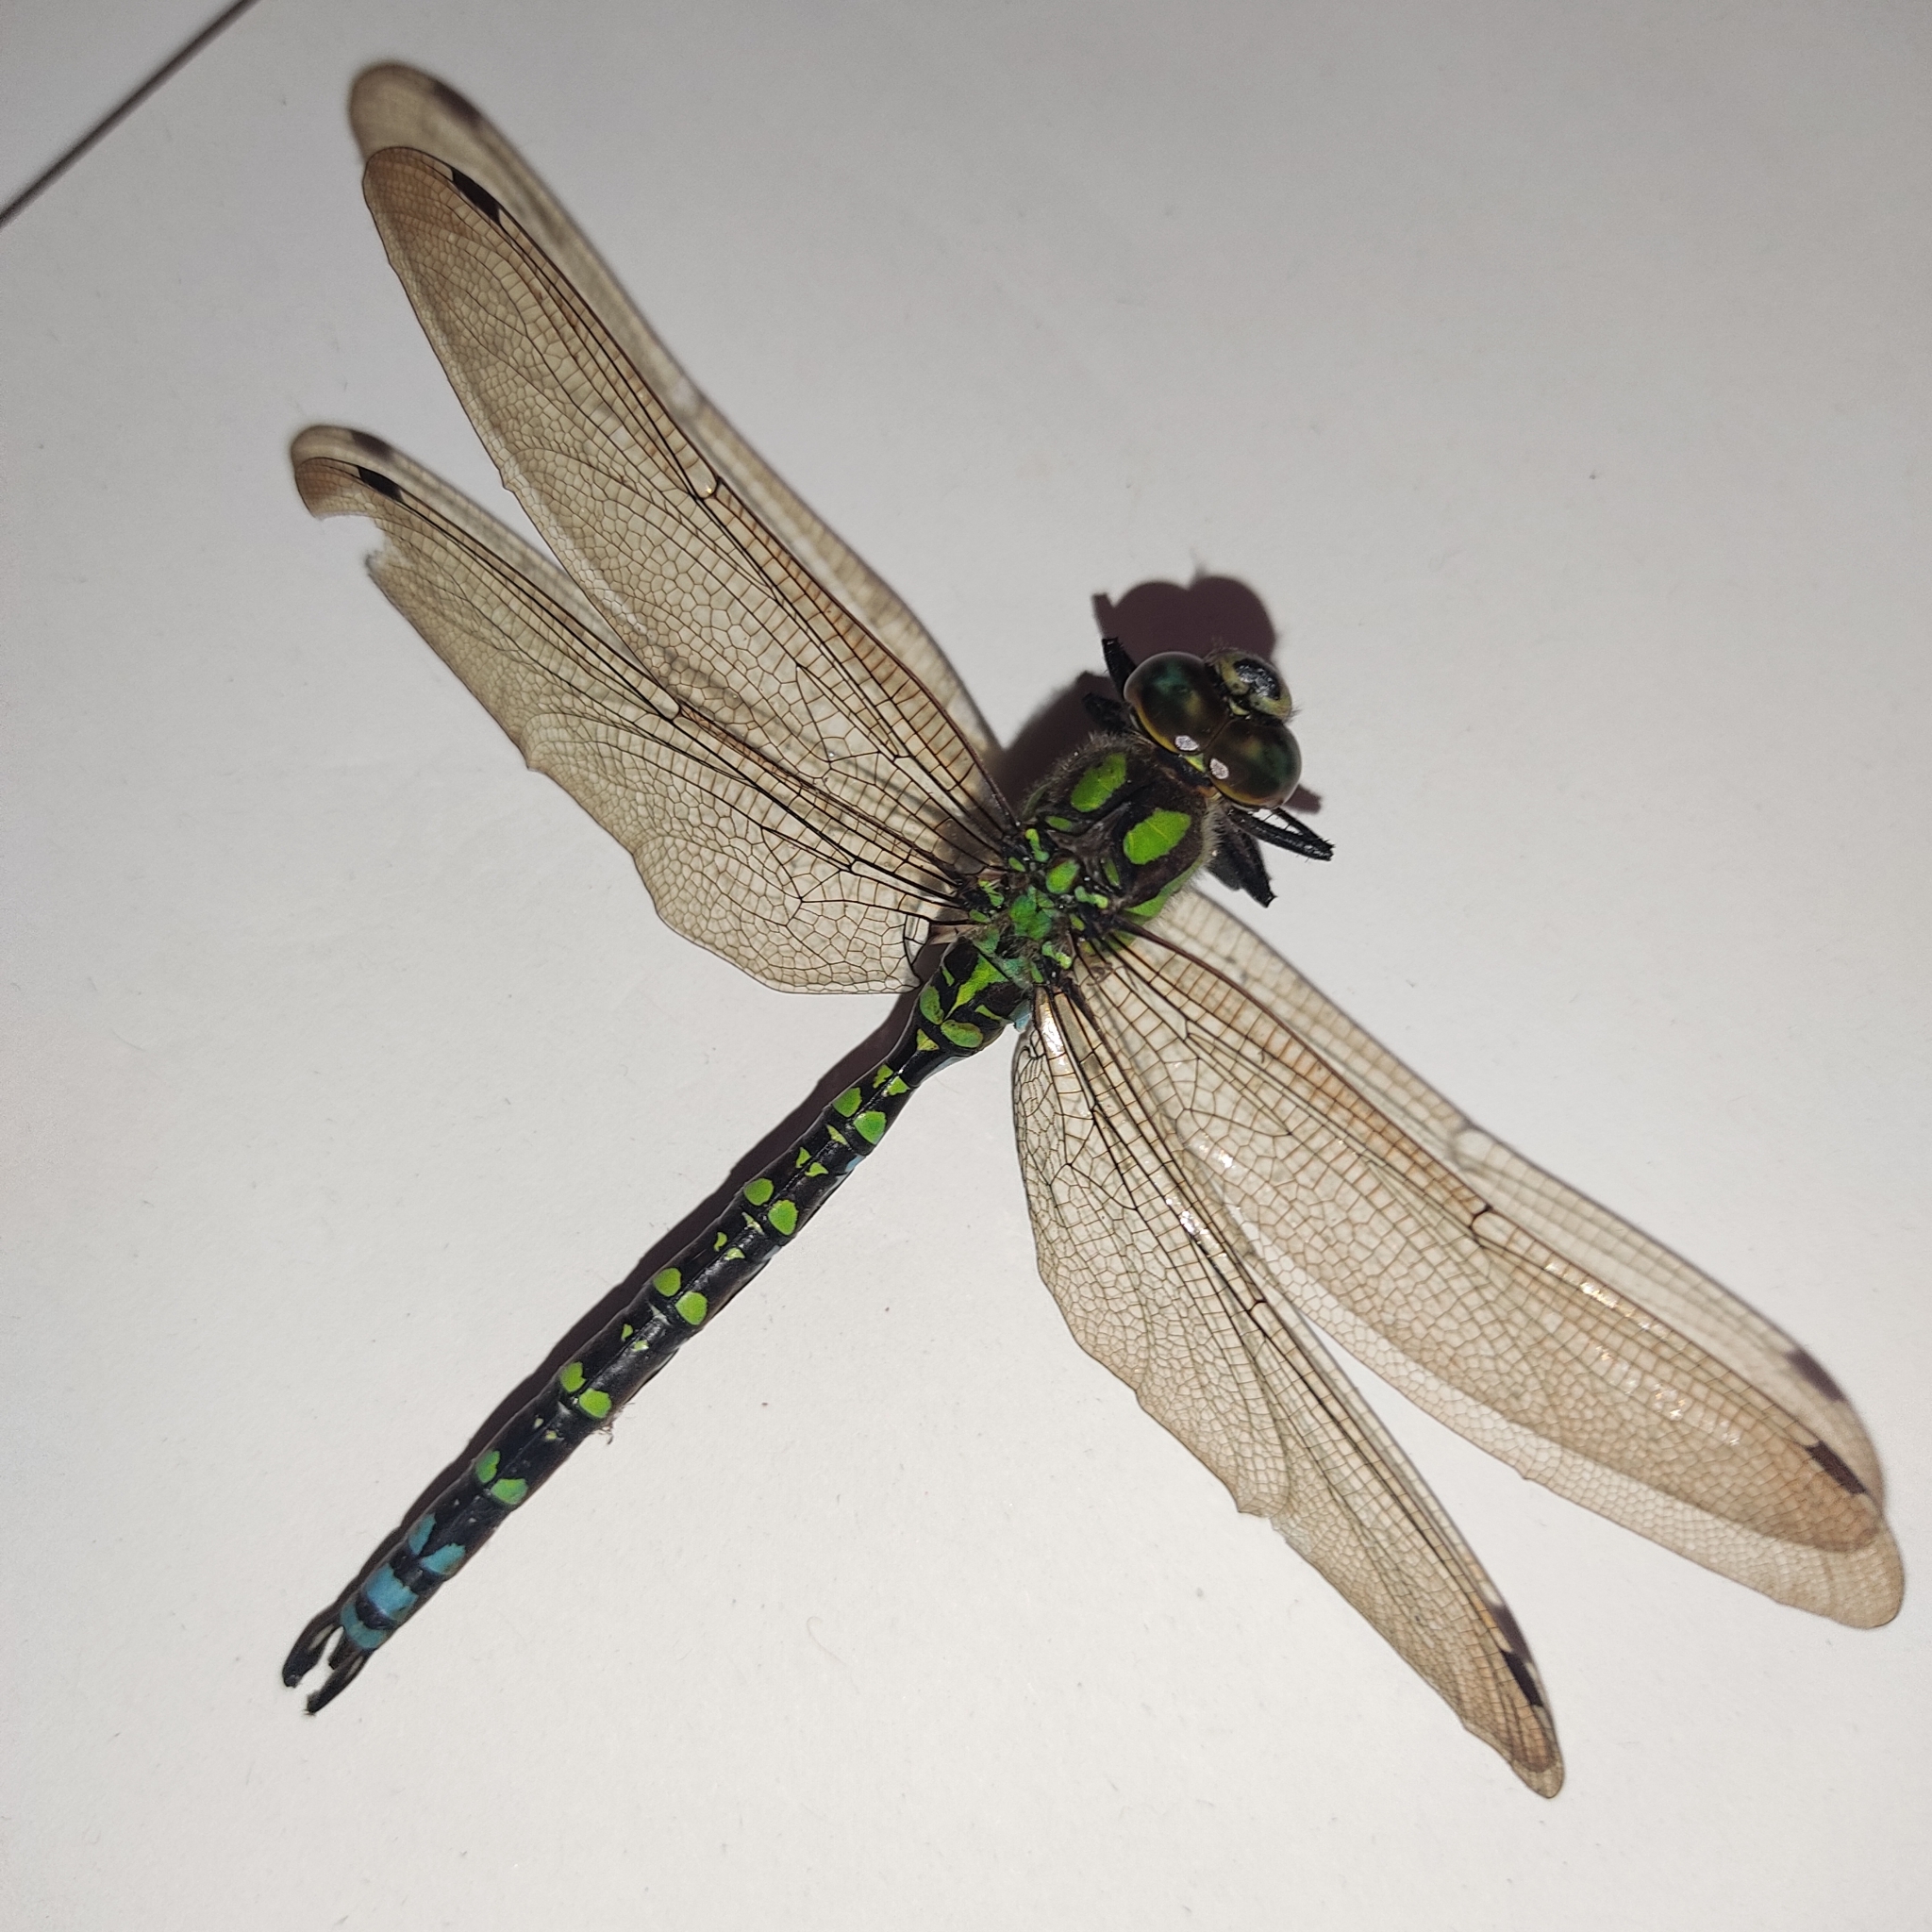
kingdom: Animalia
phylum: Arthropoda
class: Insecta
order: Odonata
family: Aeshnidae
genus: Aeshna
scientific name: Aeshna cyanea
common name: Southern hawker
